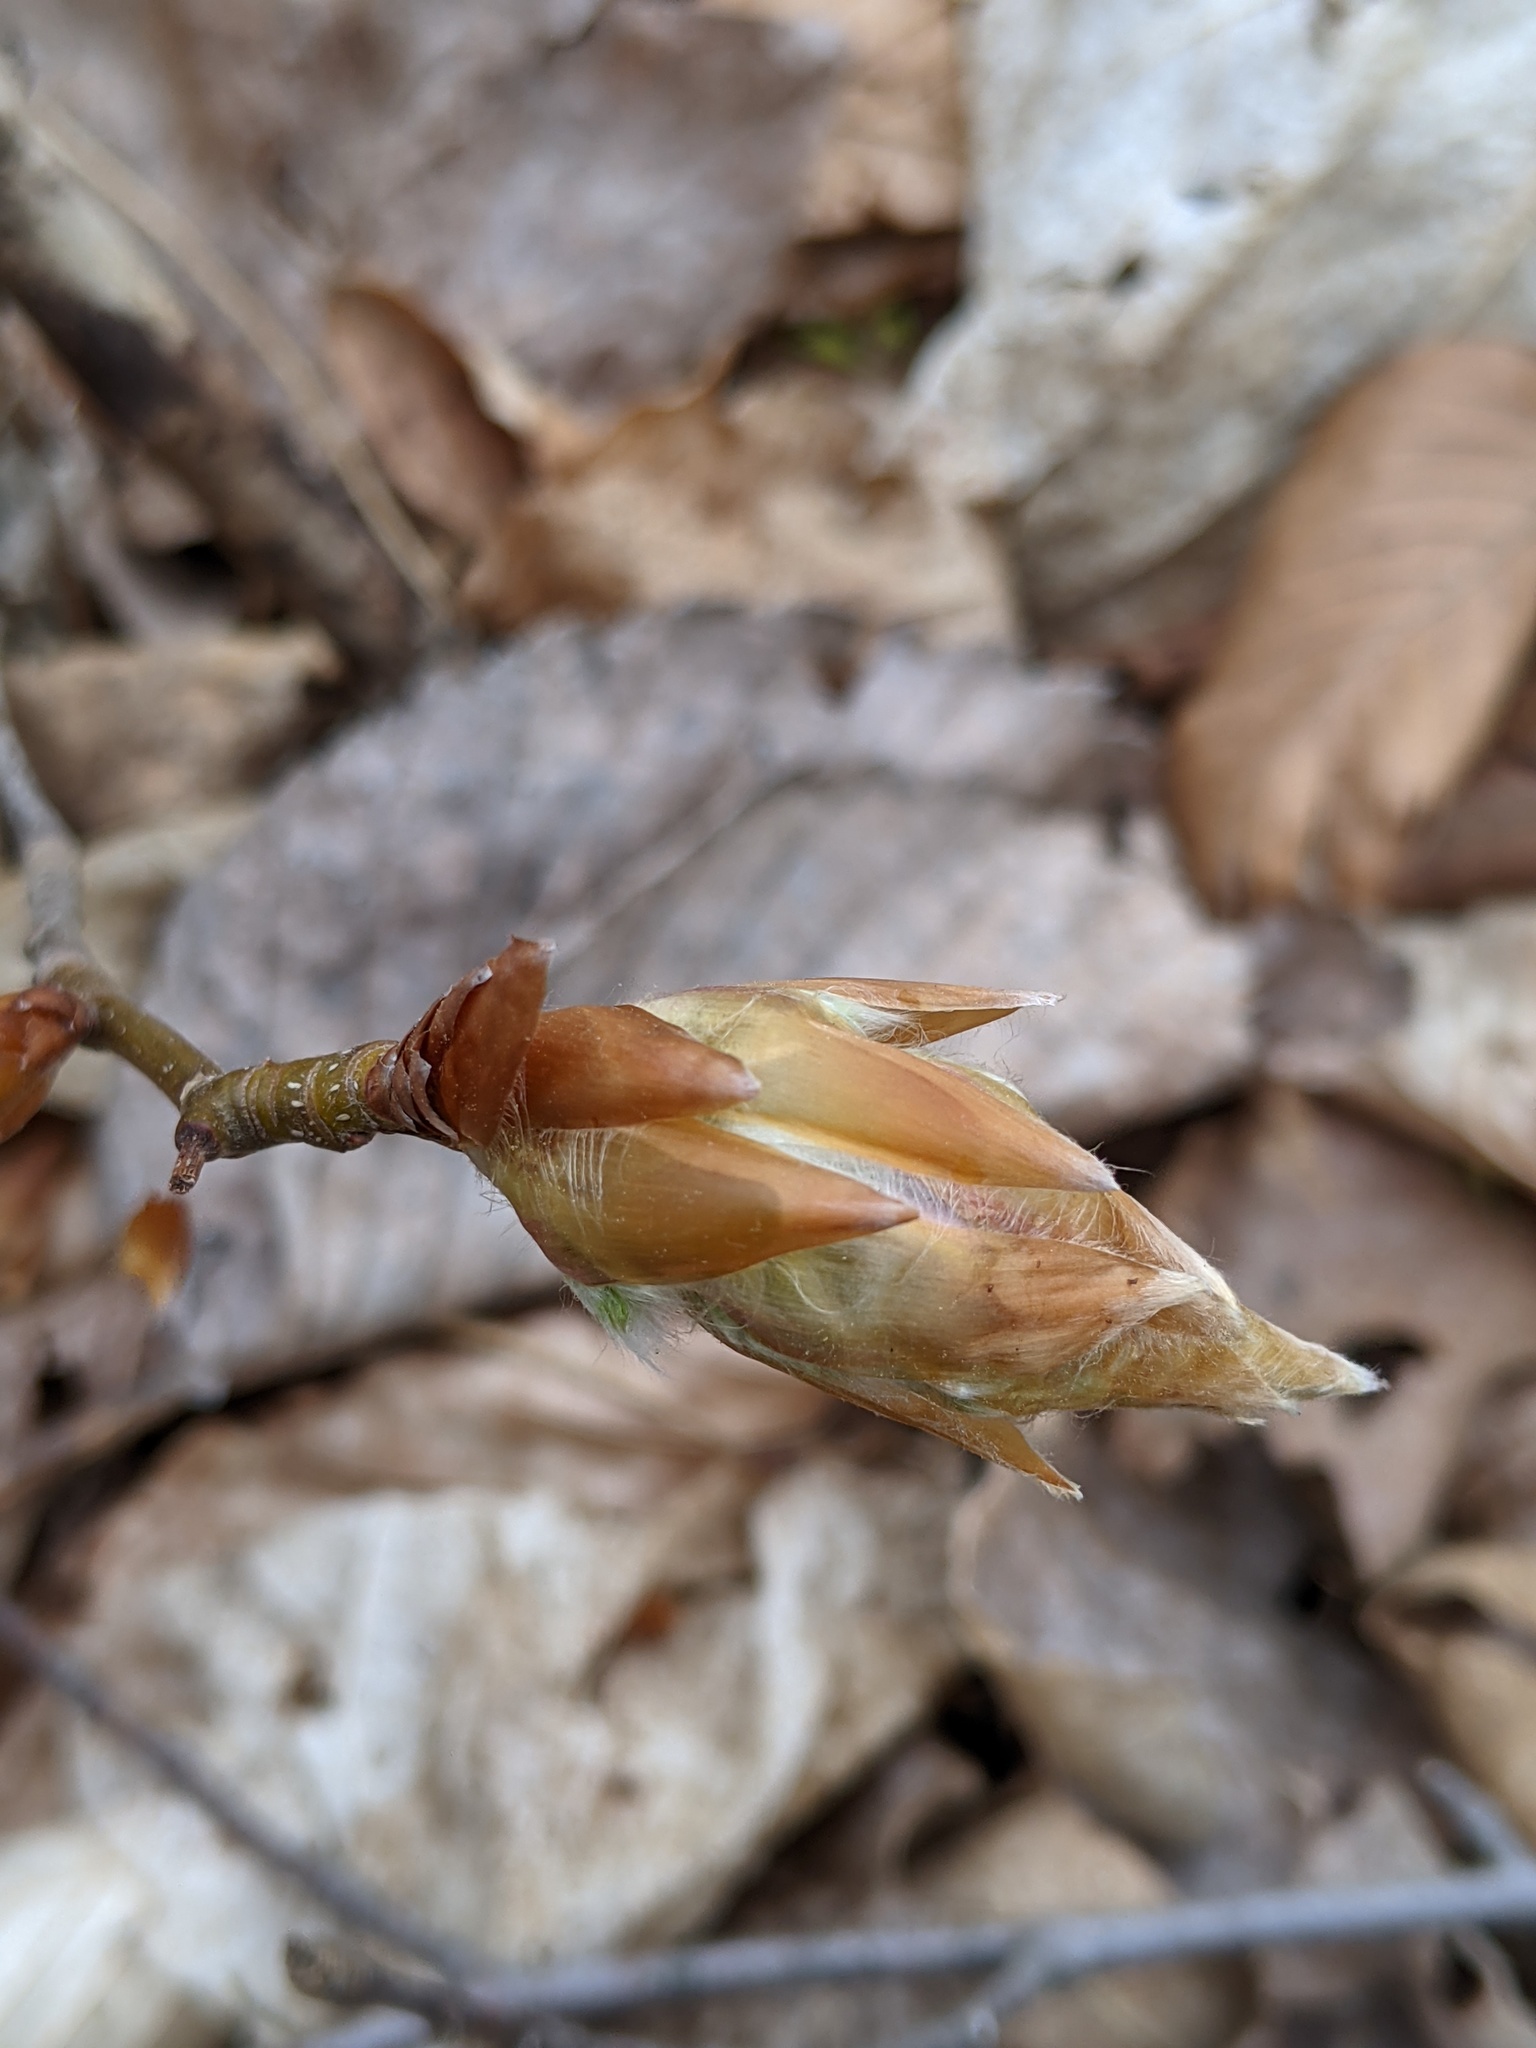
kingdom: Plantae
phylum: Tracheophyta
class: Magnoliopsida
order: Fagales
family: Fagaceae
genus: Fagus
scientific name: Fagus grandifolia
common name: American beech
